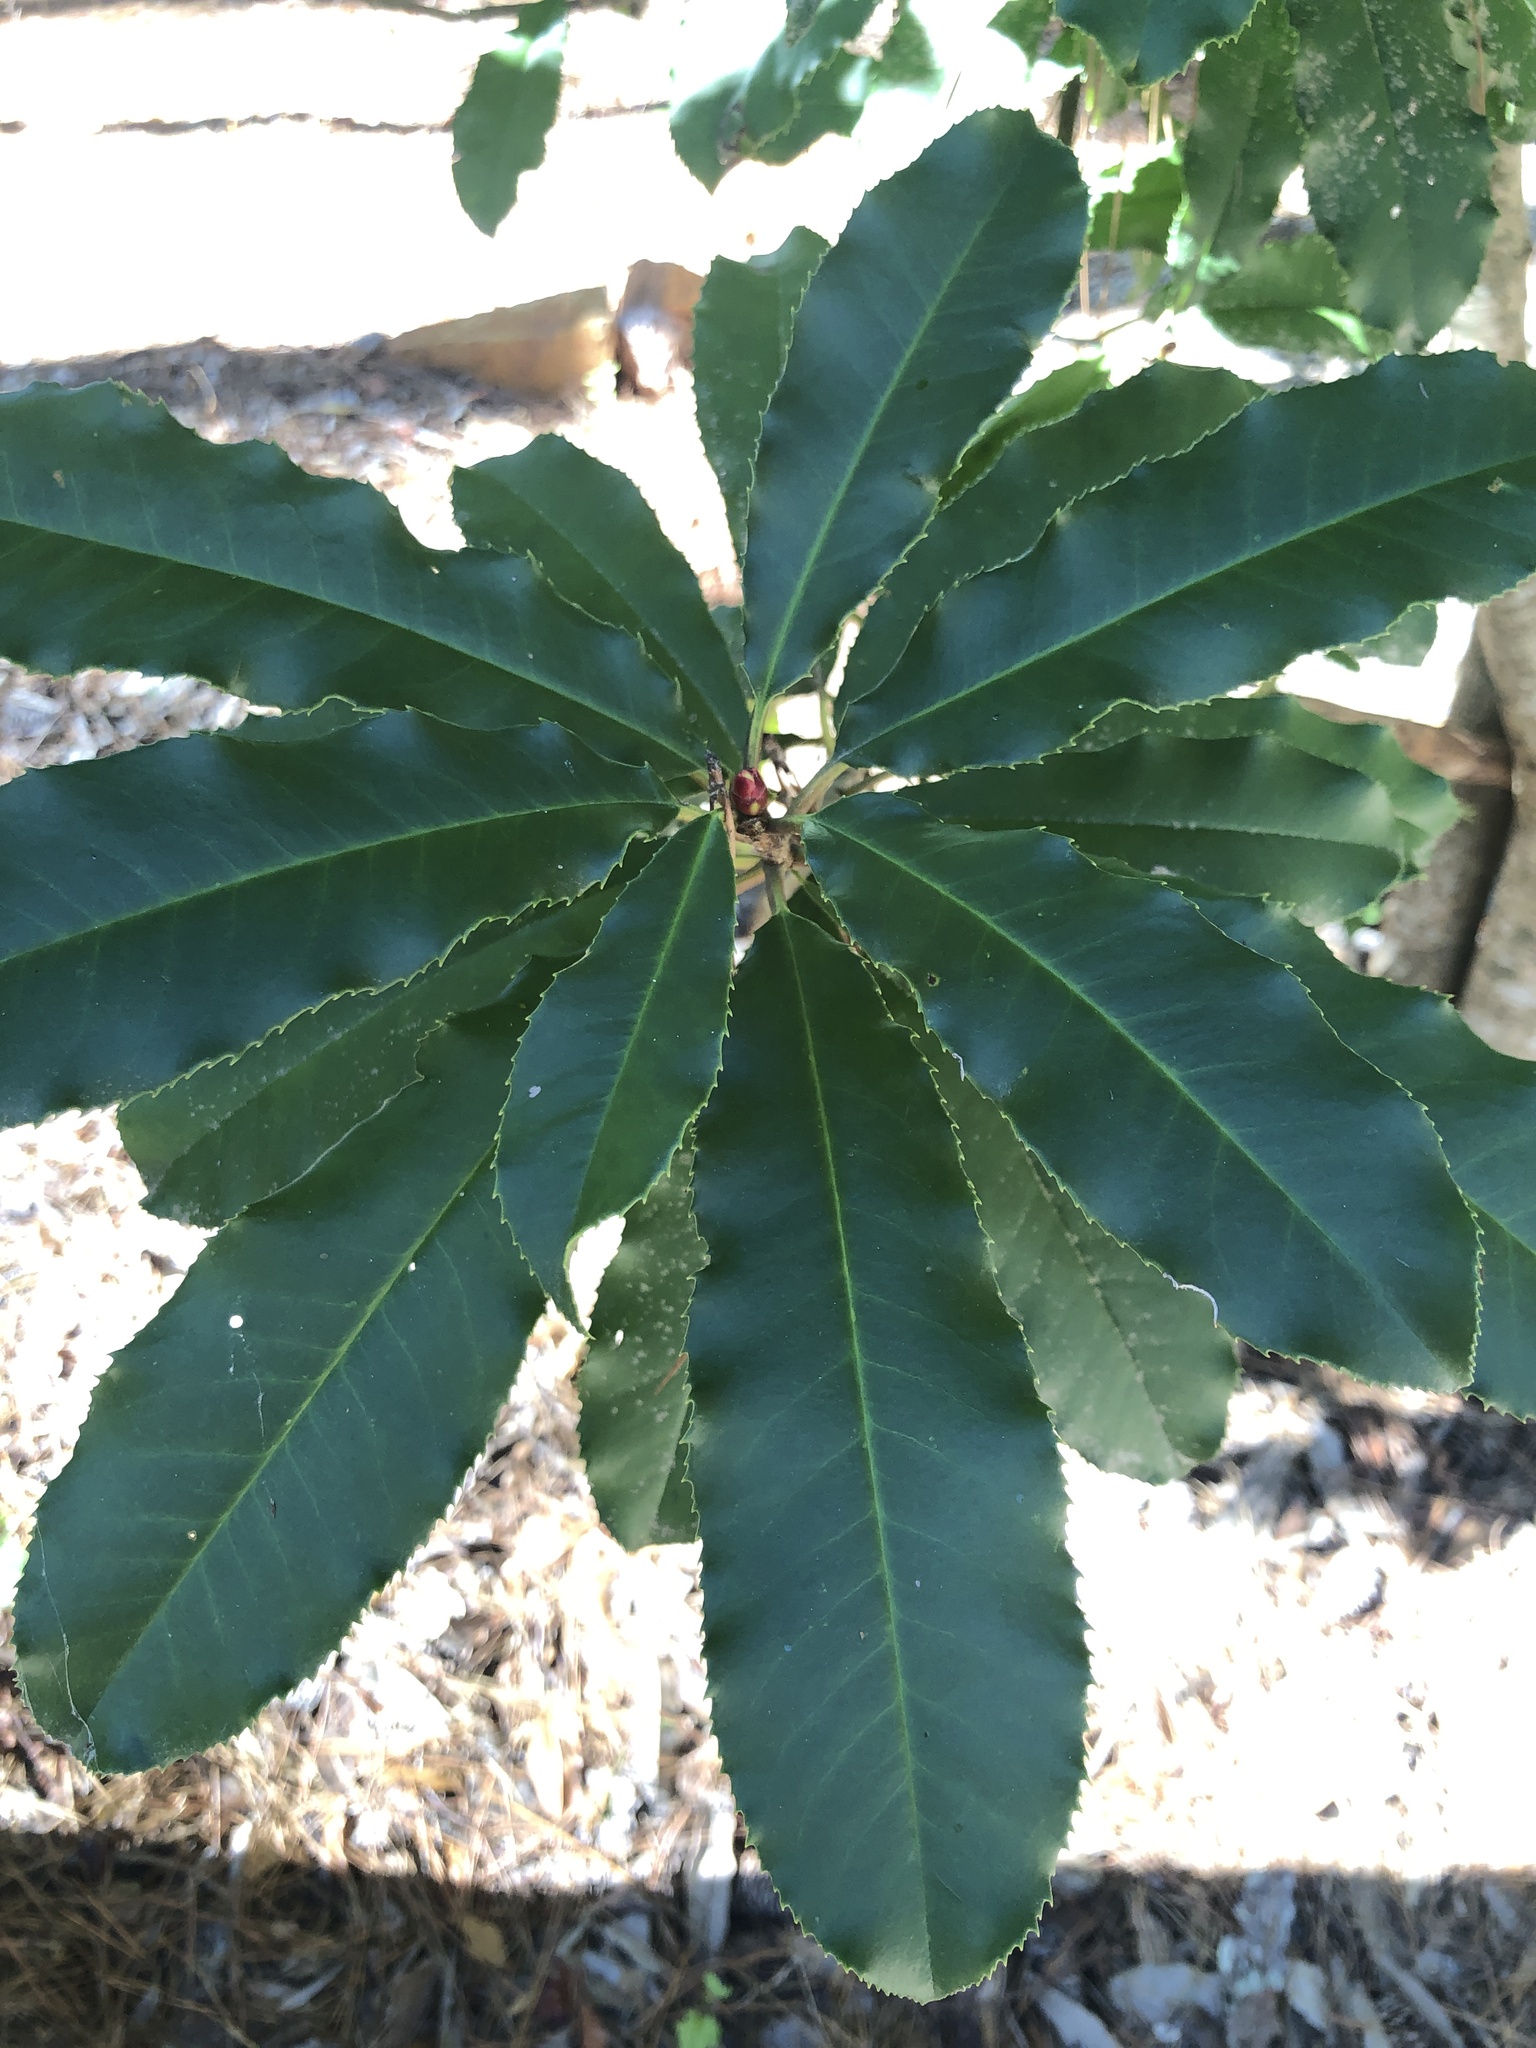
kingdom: Plantae
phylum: Tracheophyta
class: Magnoliopsida
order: Rosales
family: Rosaceae
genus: Photinia
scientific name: Photinia serratifolia
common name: Taiwanese photinia
